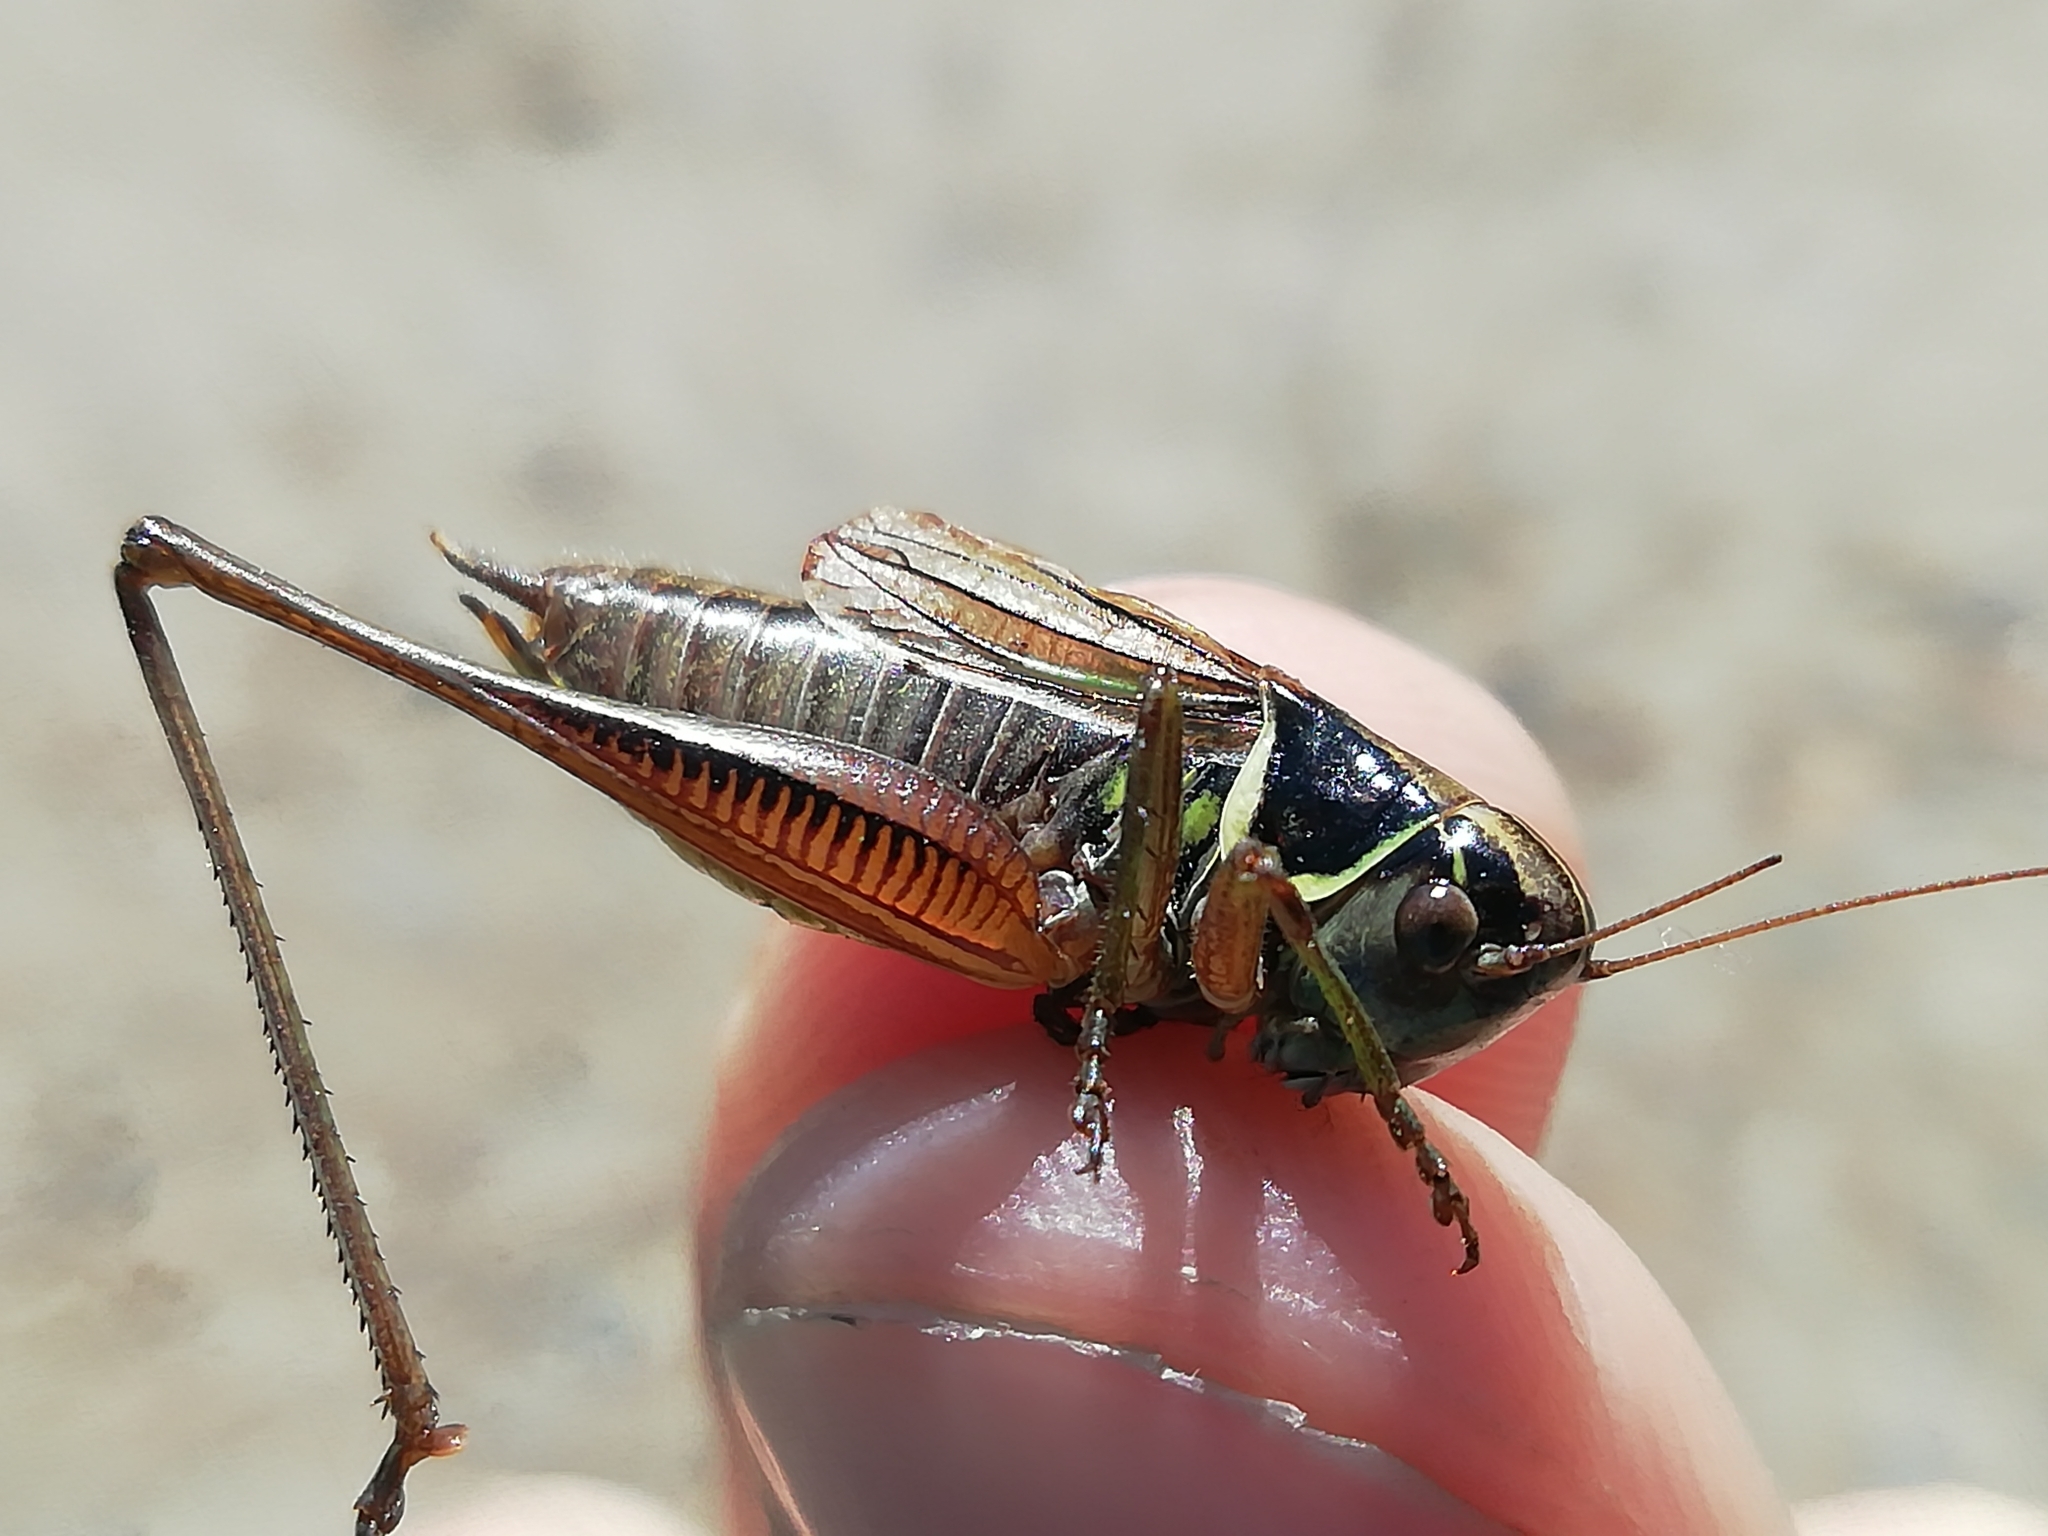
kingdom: Animalia
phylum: Arthropoda
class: Insecta
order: Orthoptera
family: Tettigoniidae
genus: Roeseliana
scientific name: Roeseliana roeselii
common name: Roesel's bush cricket
